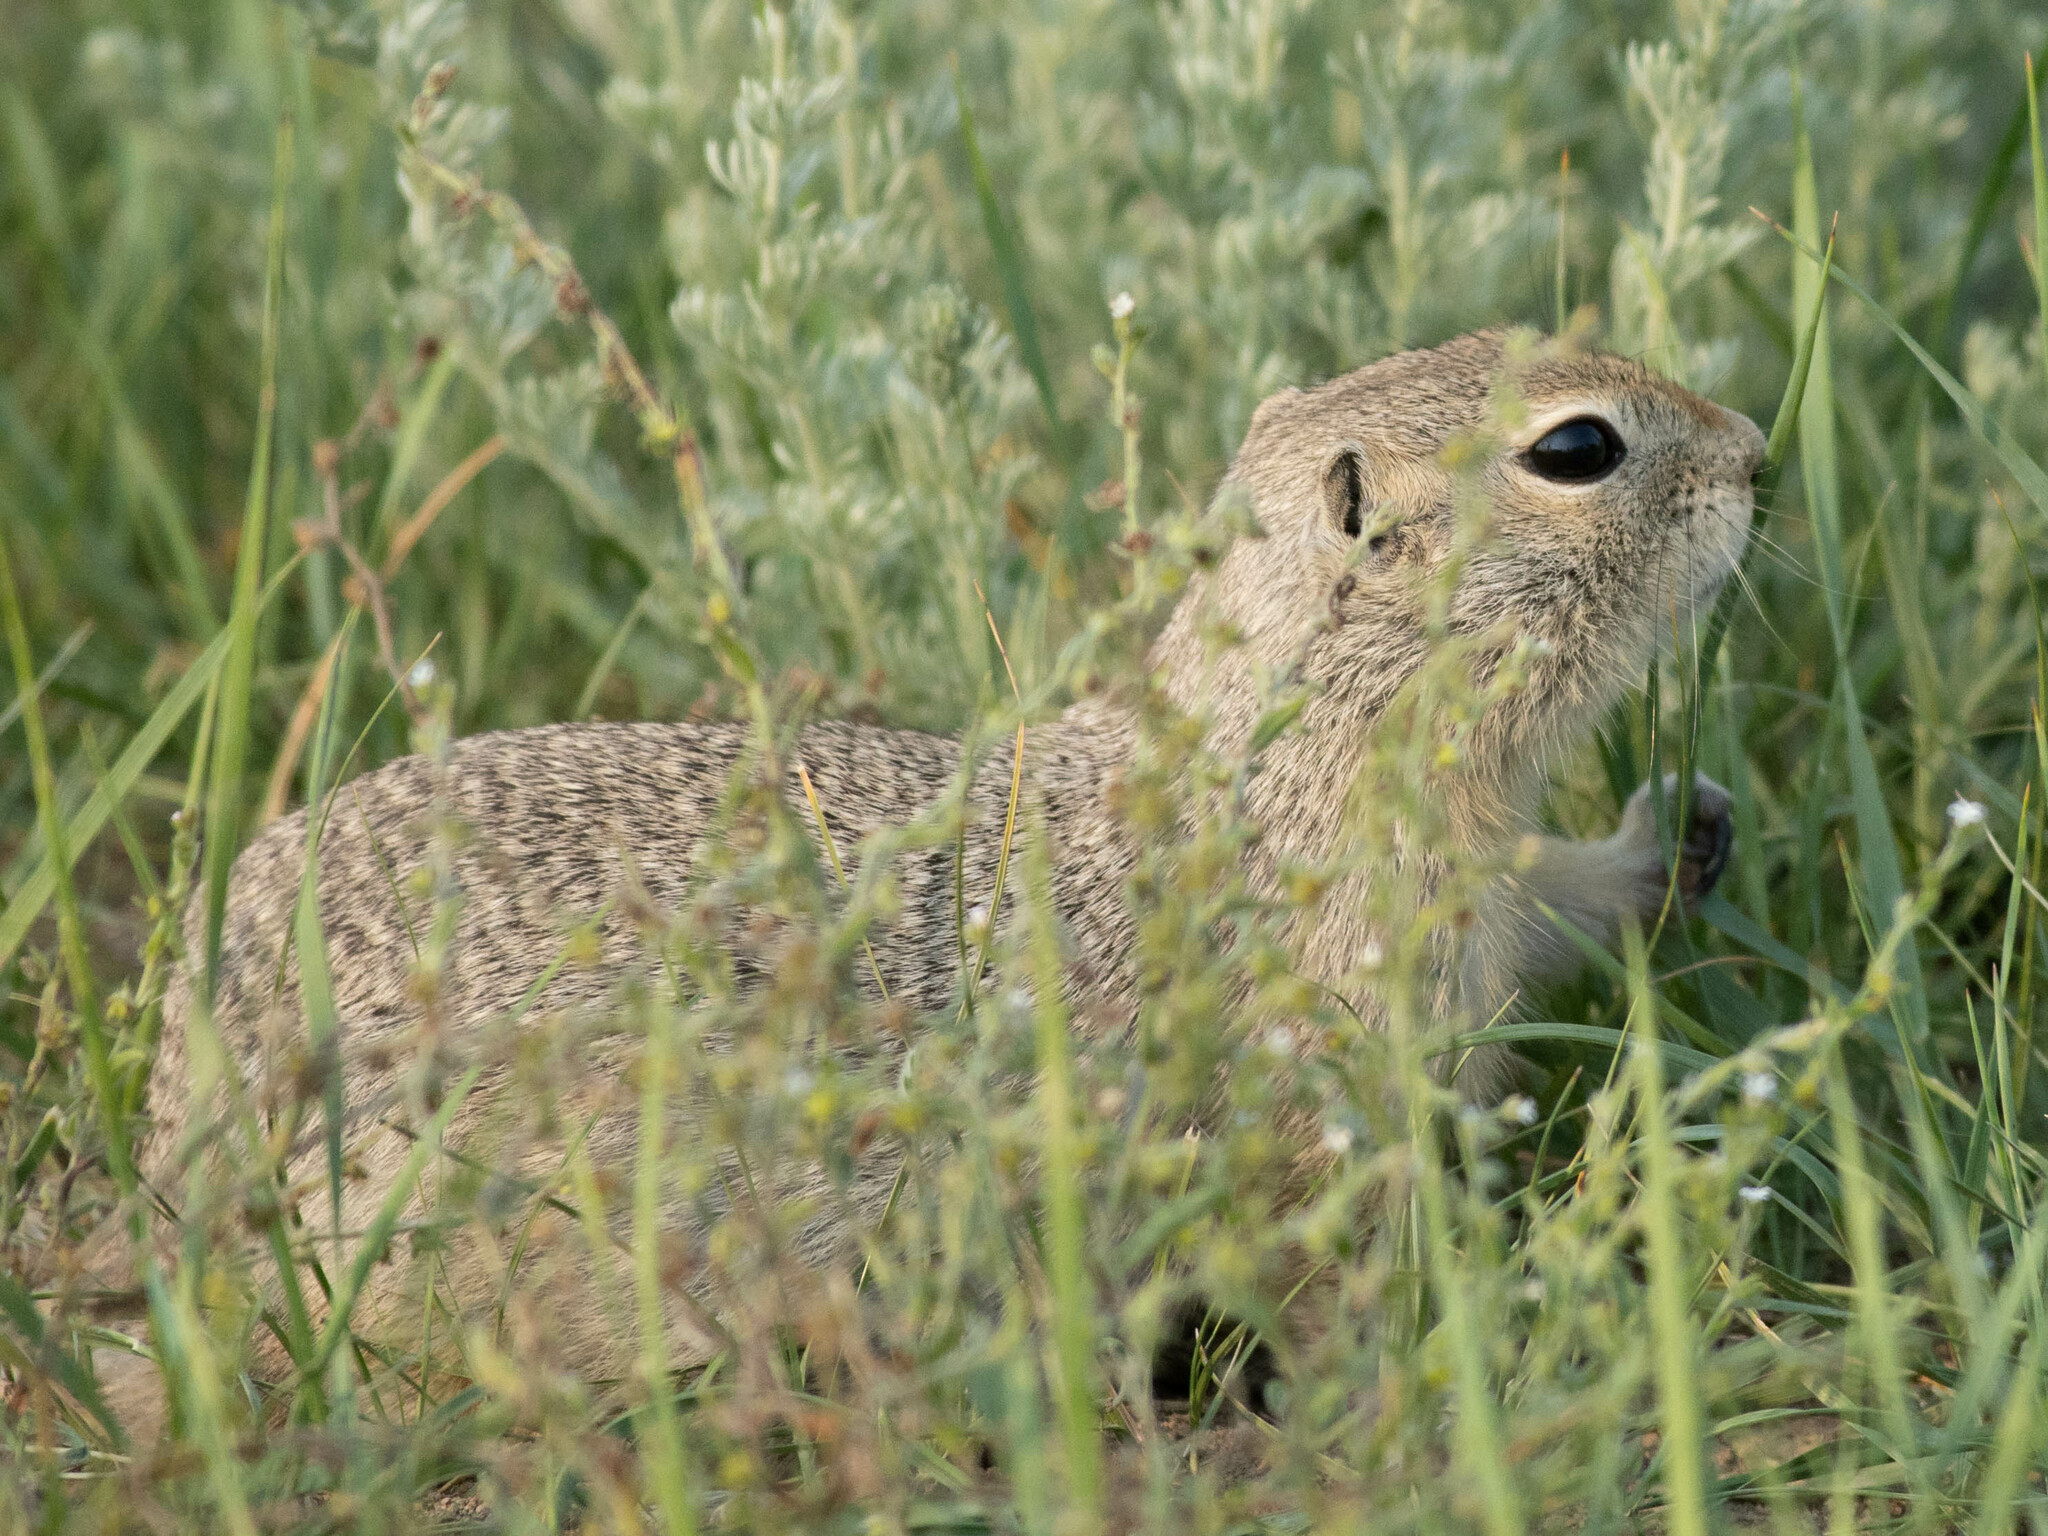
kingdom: Animalia
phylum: Chordata
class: Mammalia
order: Rodentia
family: Sciuridae
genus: Urocitellus
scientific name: Urocitellus richardsonii
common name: Richardson's ground squirrel
